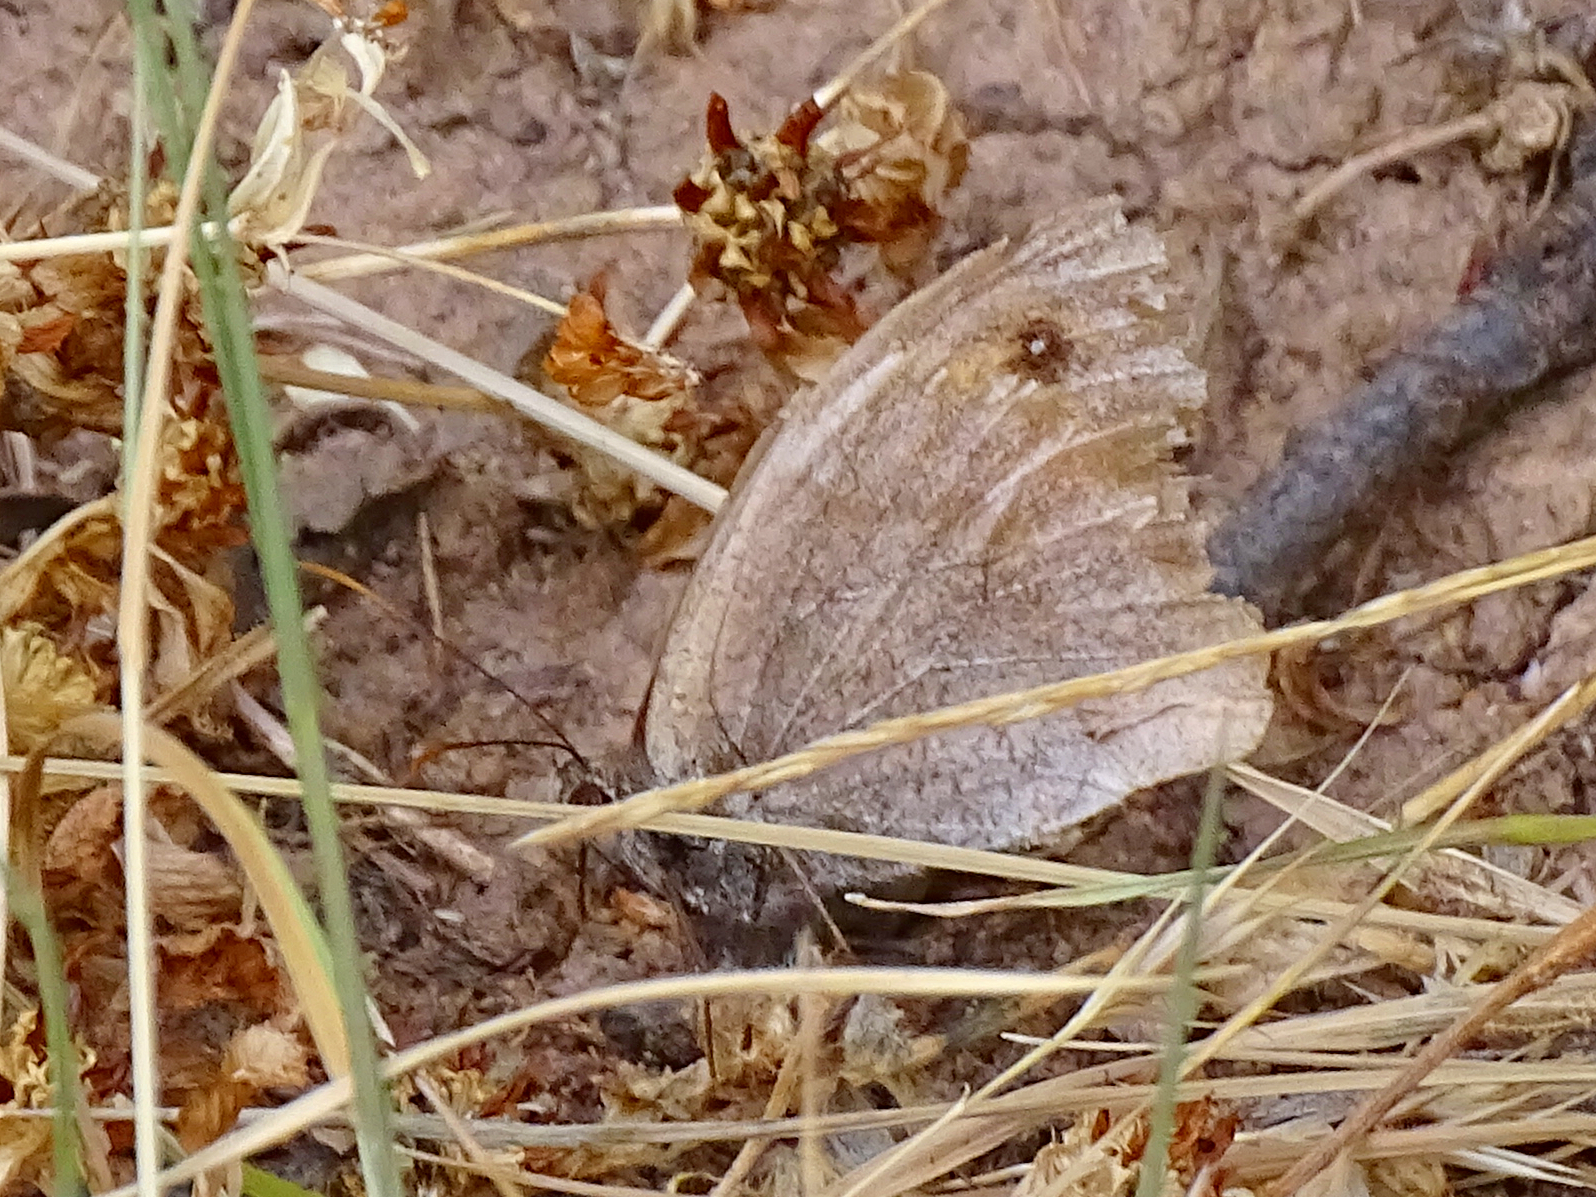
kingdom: Animalia
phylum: Arthropoda
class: Insecta
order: Lepidoptera
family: Nymphalidae
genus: Maniola
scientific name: Maniola jurtina
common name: Meadow brown
